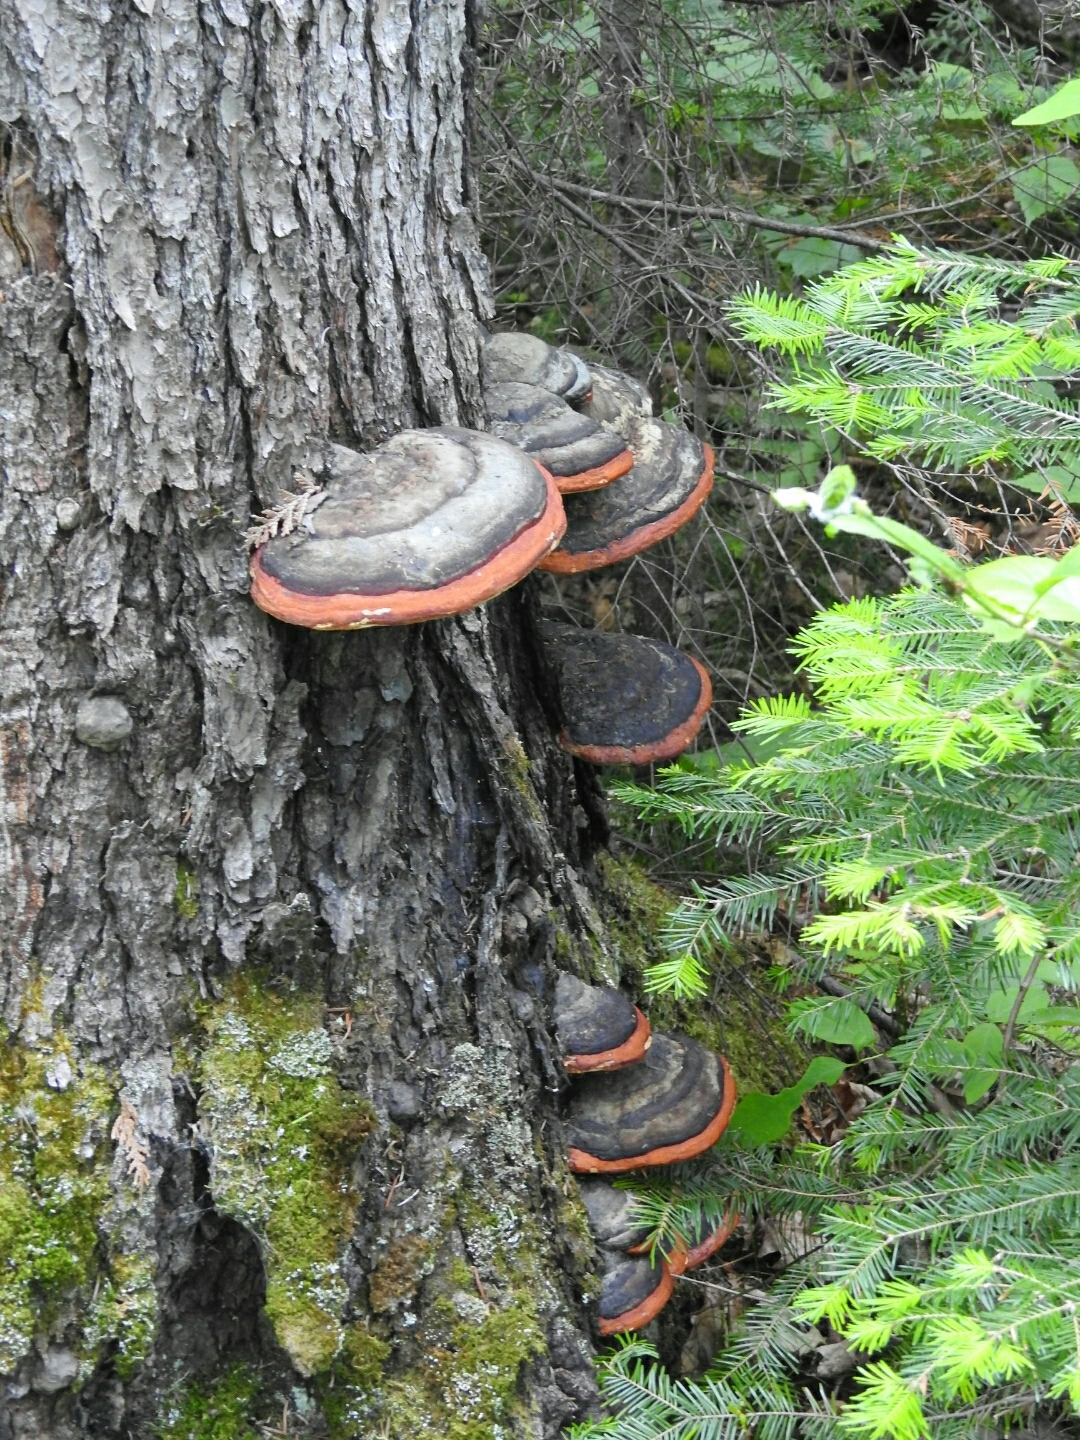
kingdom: Fungi
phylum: Basidiomycota
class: Agaricomycetes
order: Polyporales
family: Fomitopsidaceae
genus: Fomitopsis
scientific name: Fomitopsis mounceae
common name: Northern red belt
